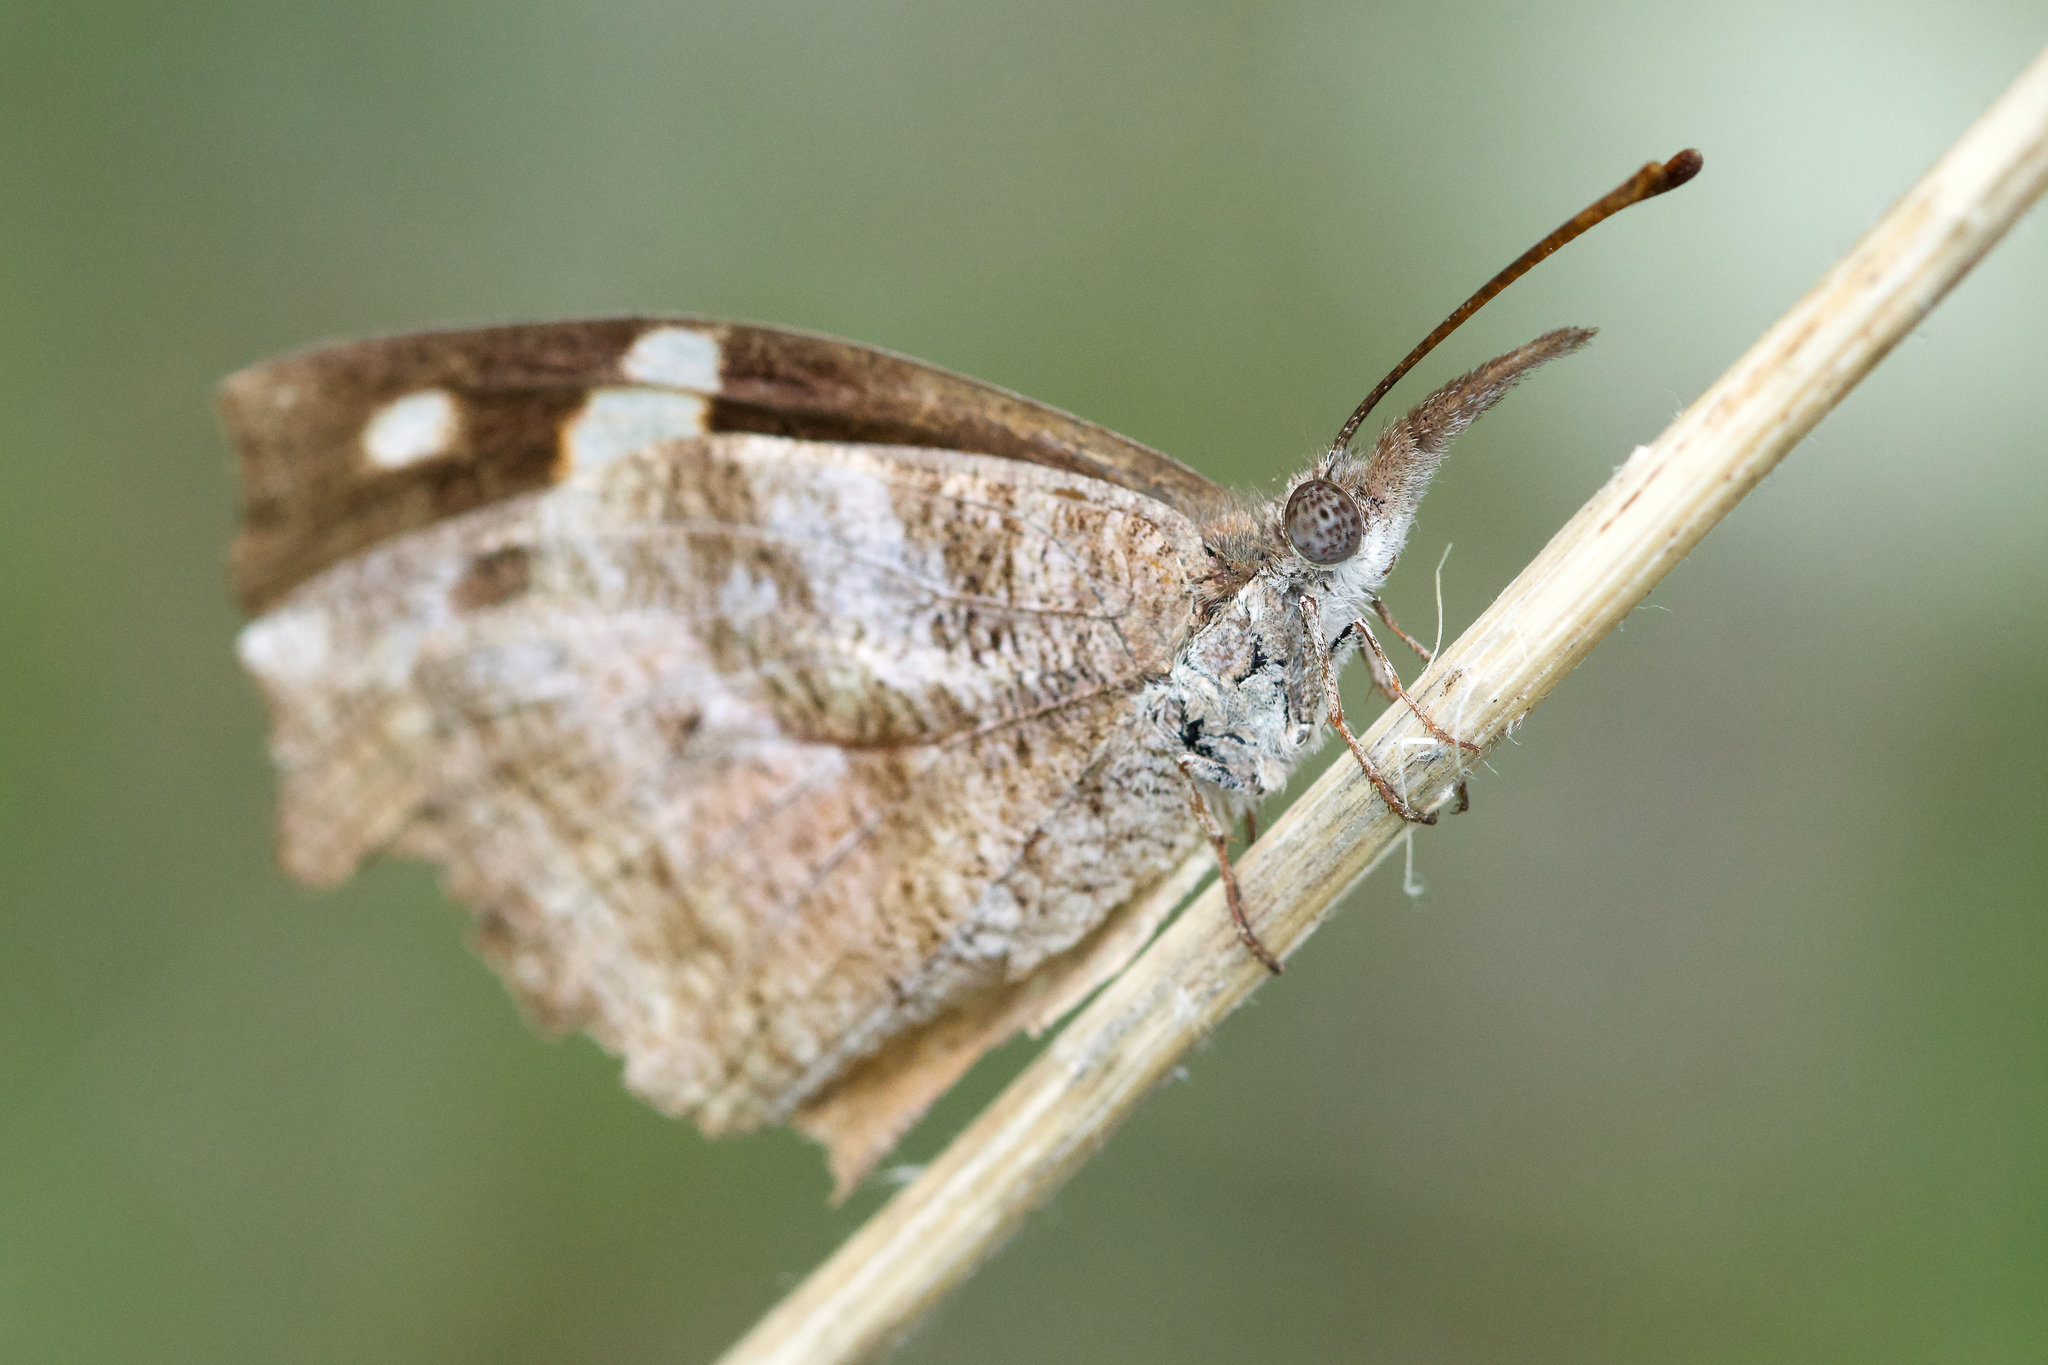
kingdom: Animalia
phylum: Arthropoda
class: Insecta
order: Lepidoptera
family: Nymphalidae
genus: Libytheana
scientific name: Libytheana carinenta
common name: American snout
